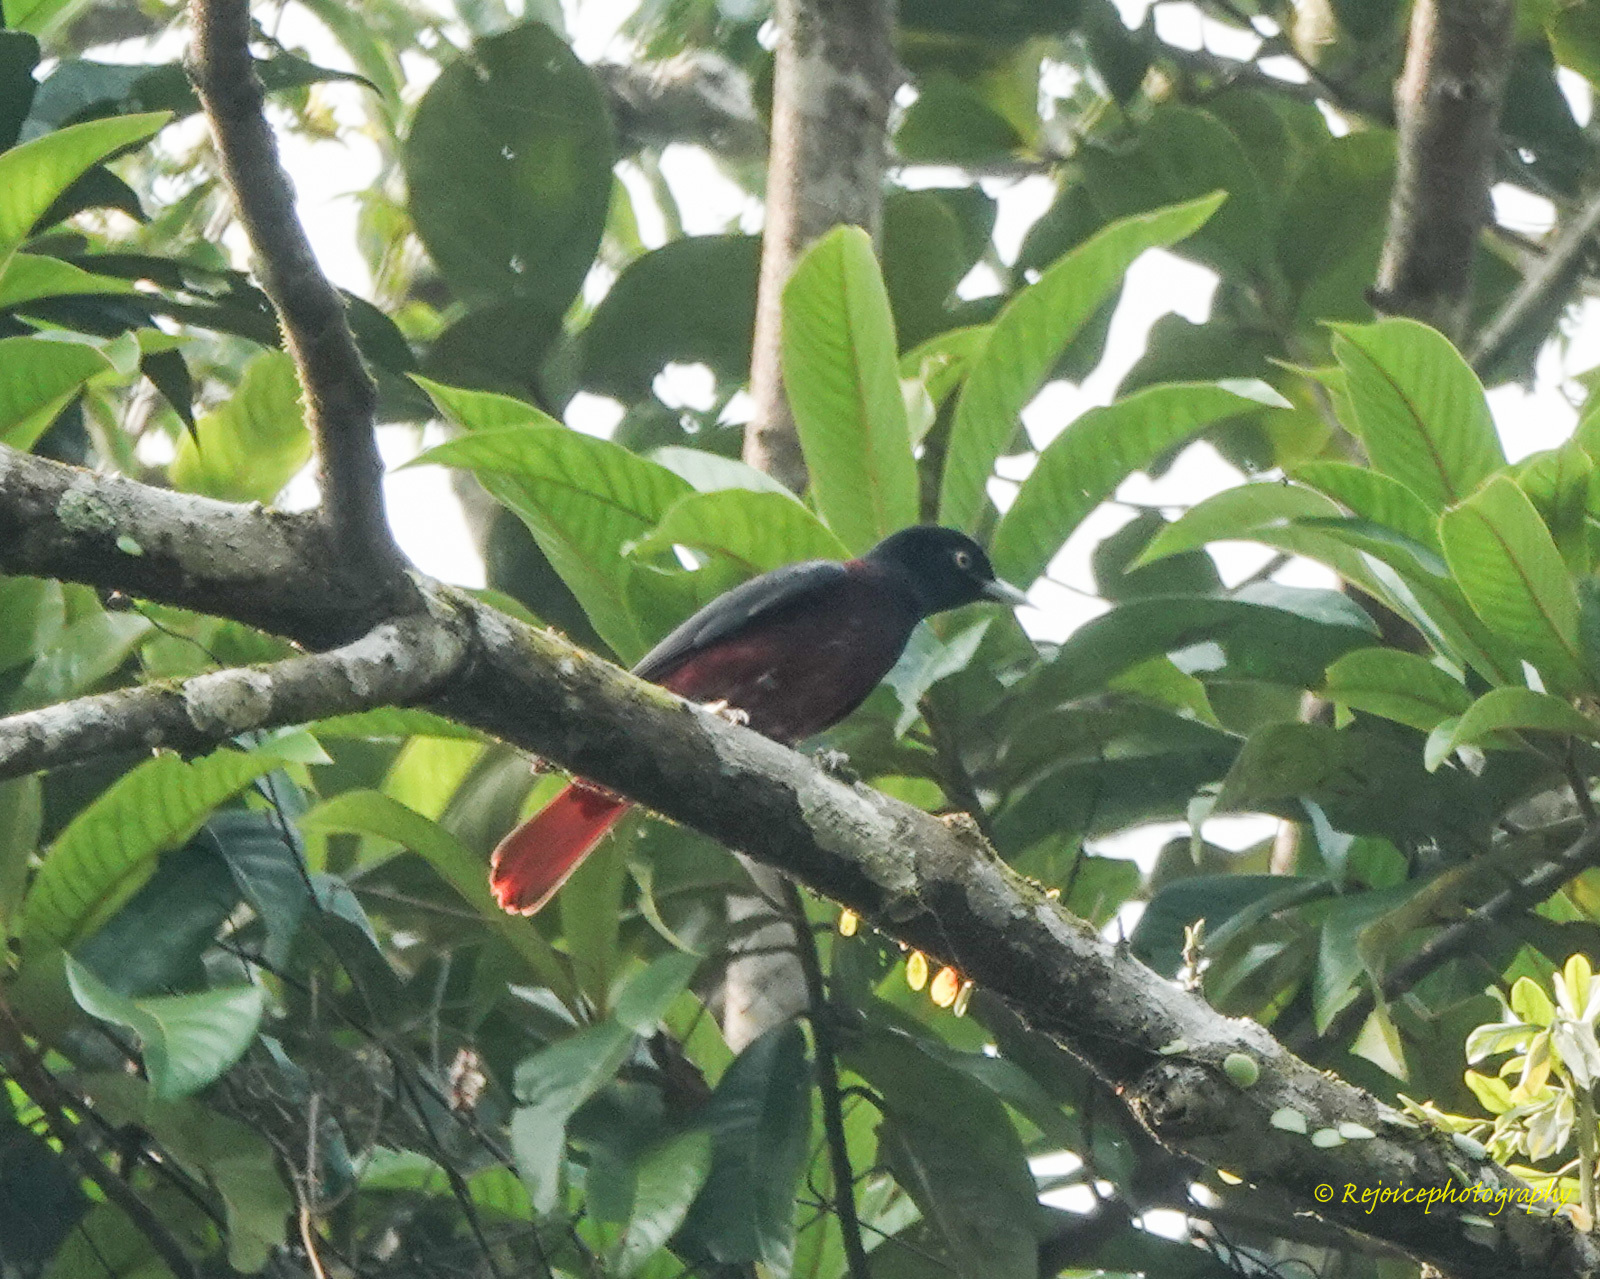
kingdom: Animalia
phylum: Chordata
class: Aves
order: Passeriformes
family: Oriolidae
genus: Oriolus
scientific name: Oriolus traillii
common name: Maroon oriole
